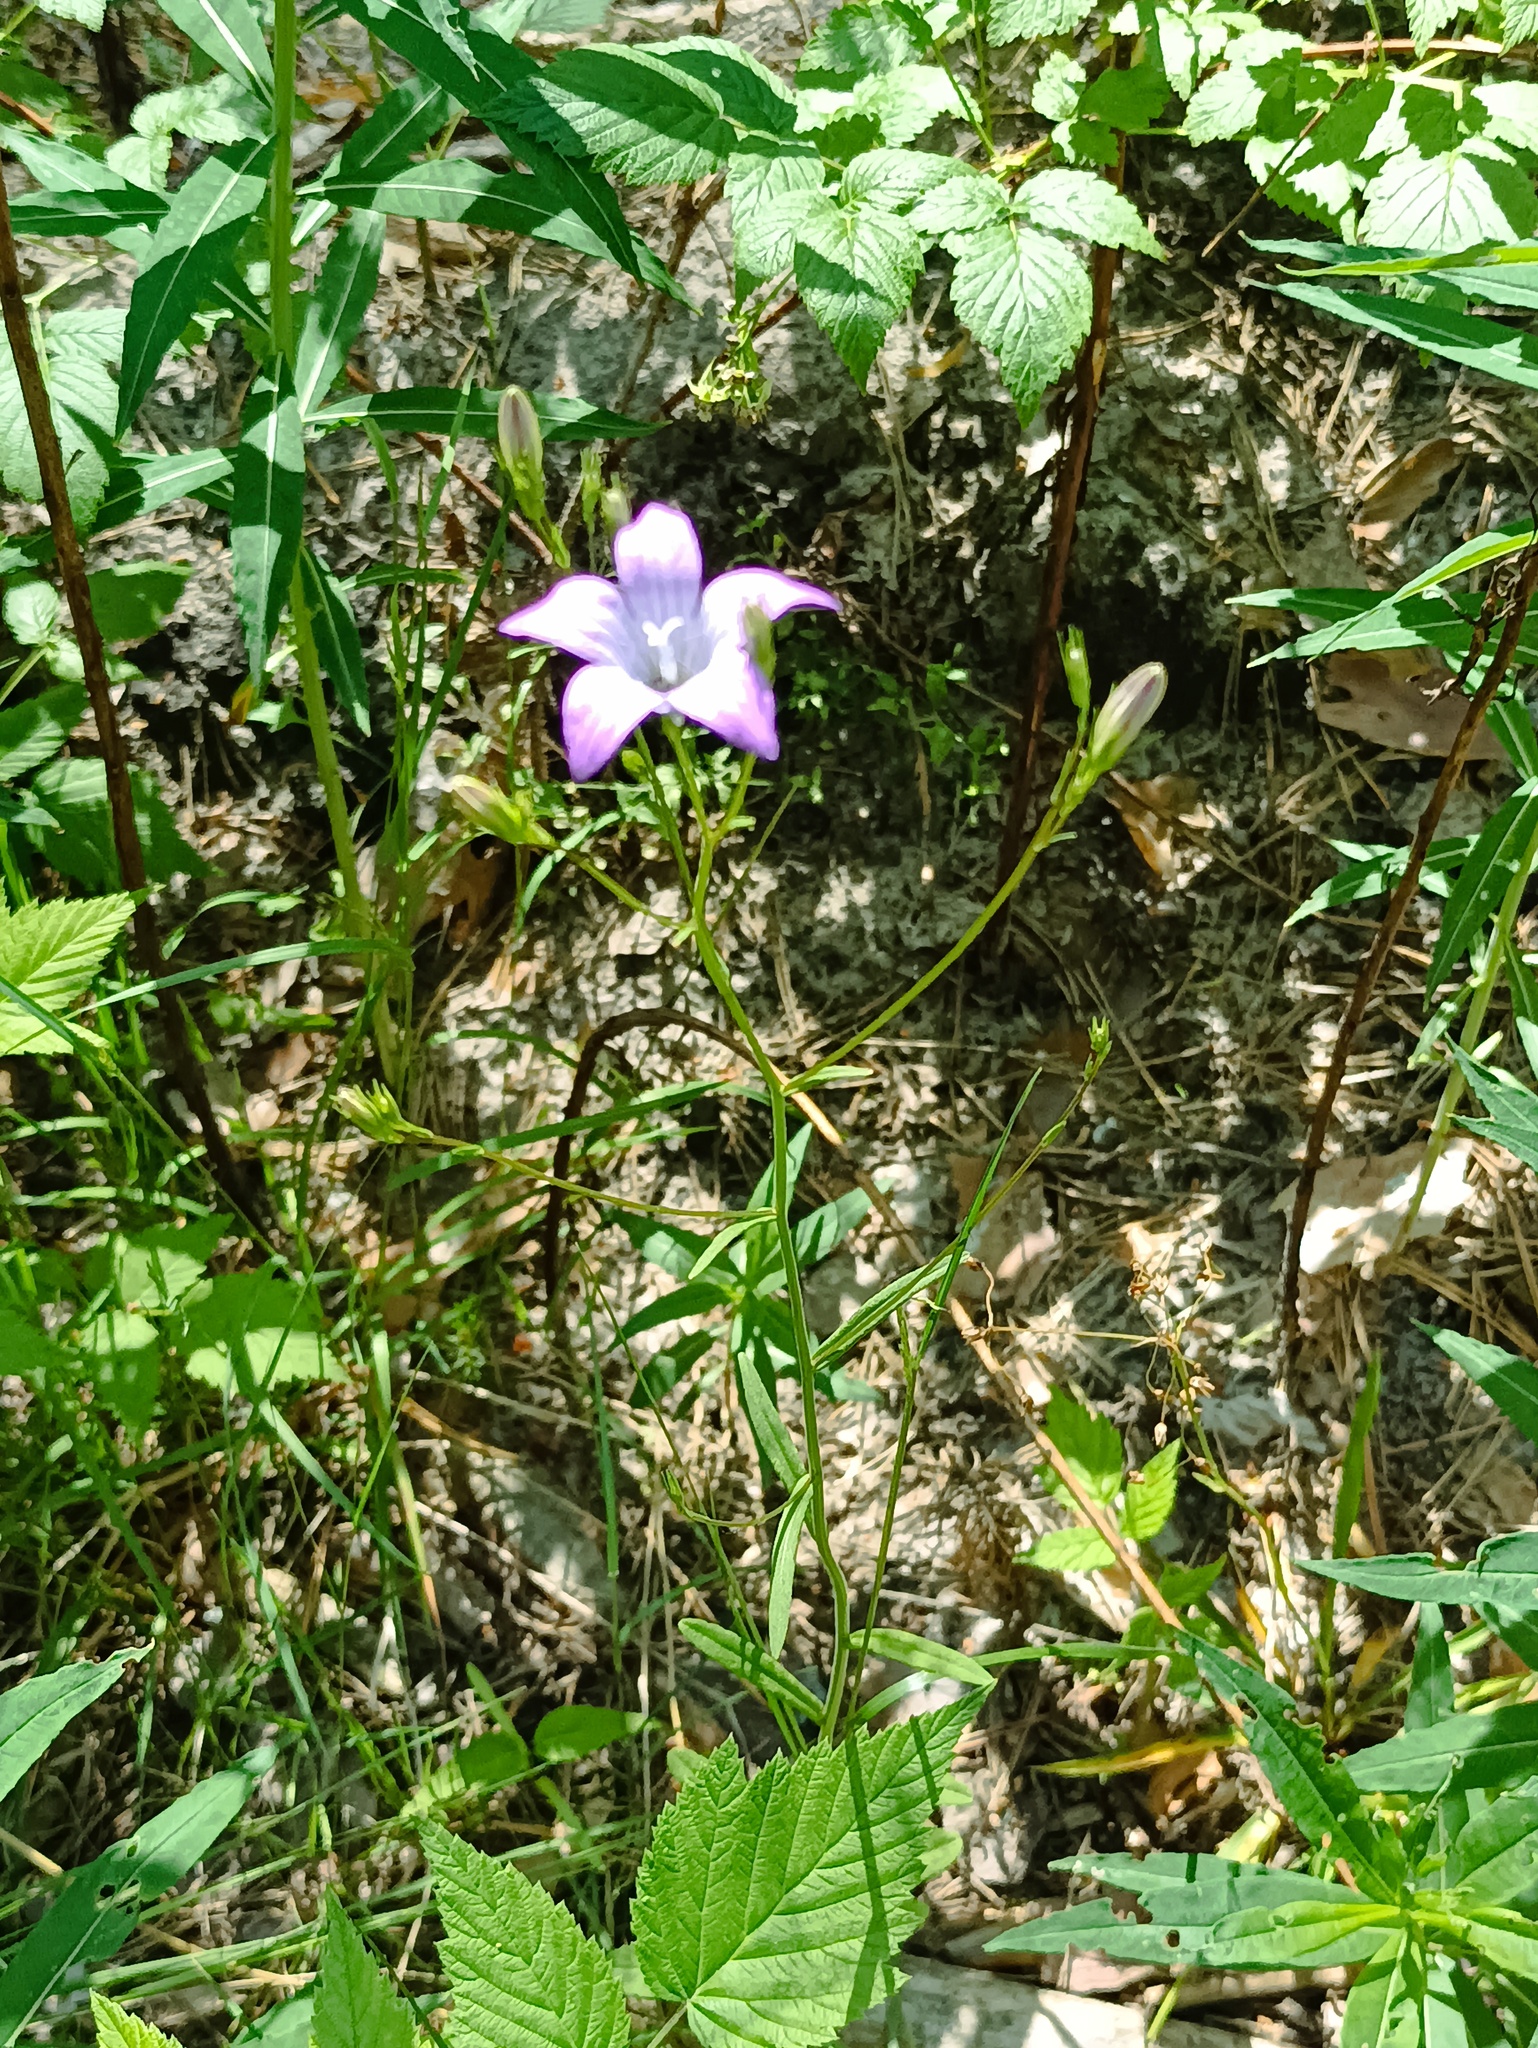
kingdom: Plantae
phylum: Tracheophyta
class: Magnoliopsida
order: Asterales
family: Campanulaceae
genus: Campanula
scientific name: Campanula patula
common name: Spreading bellflower
